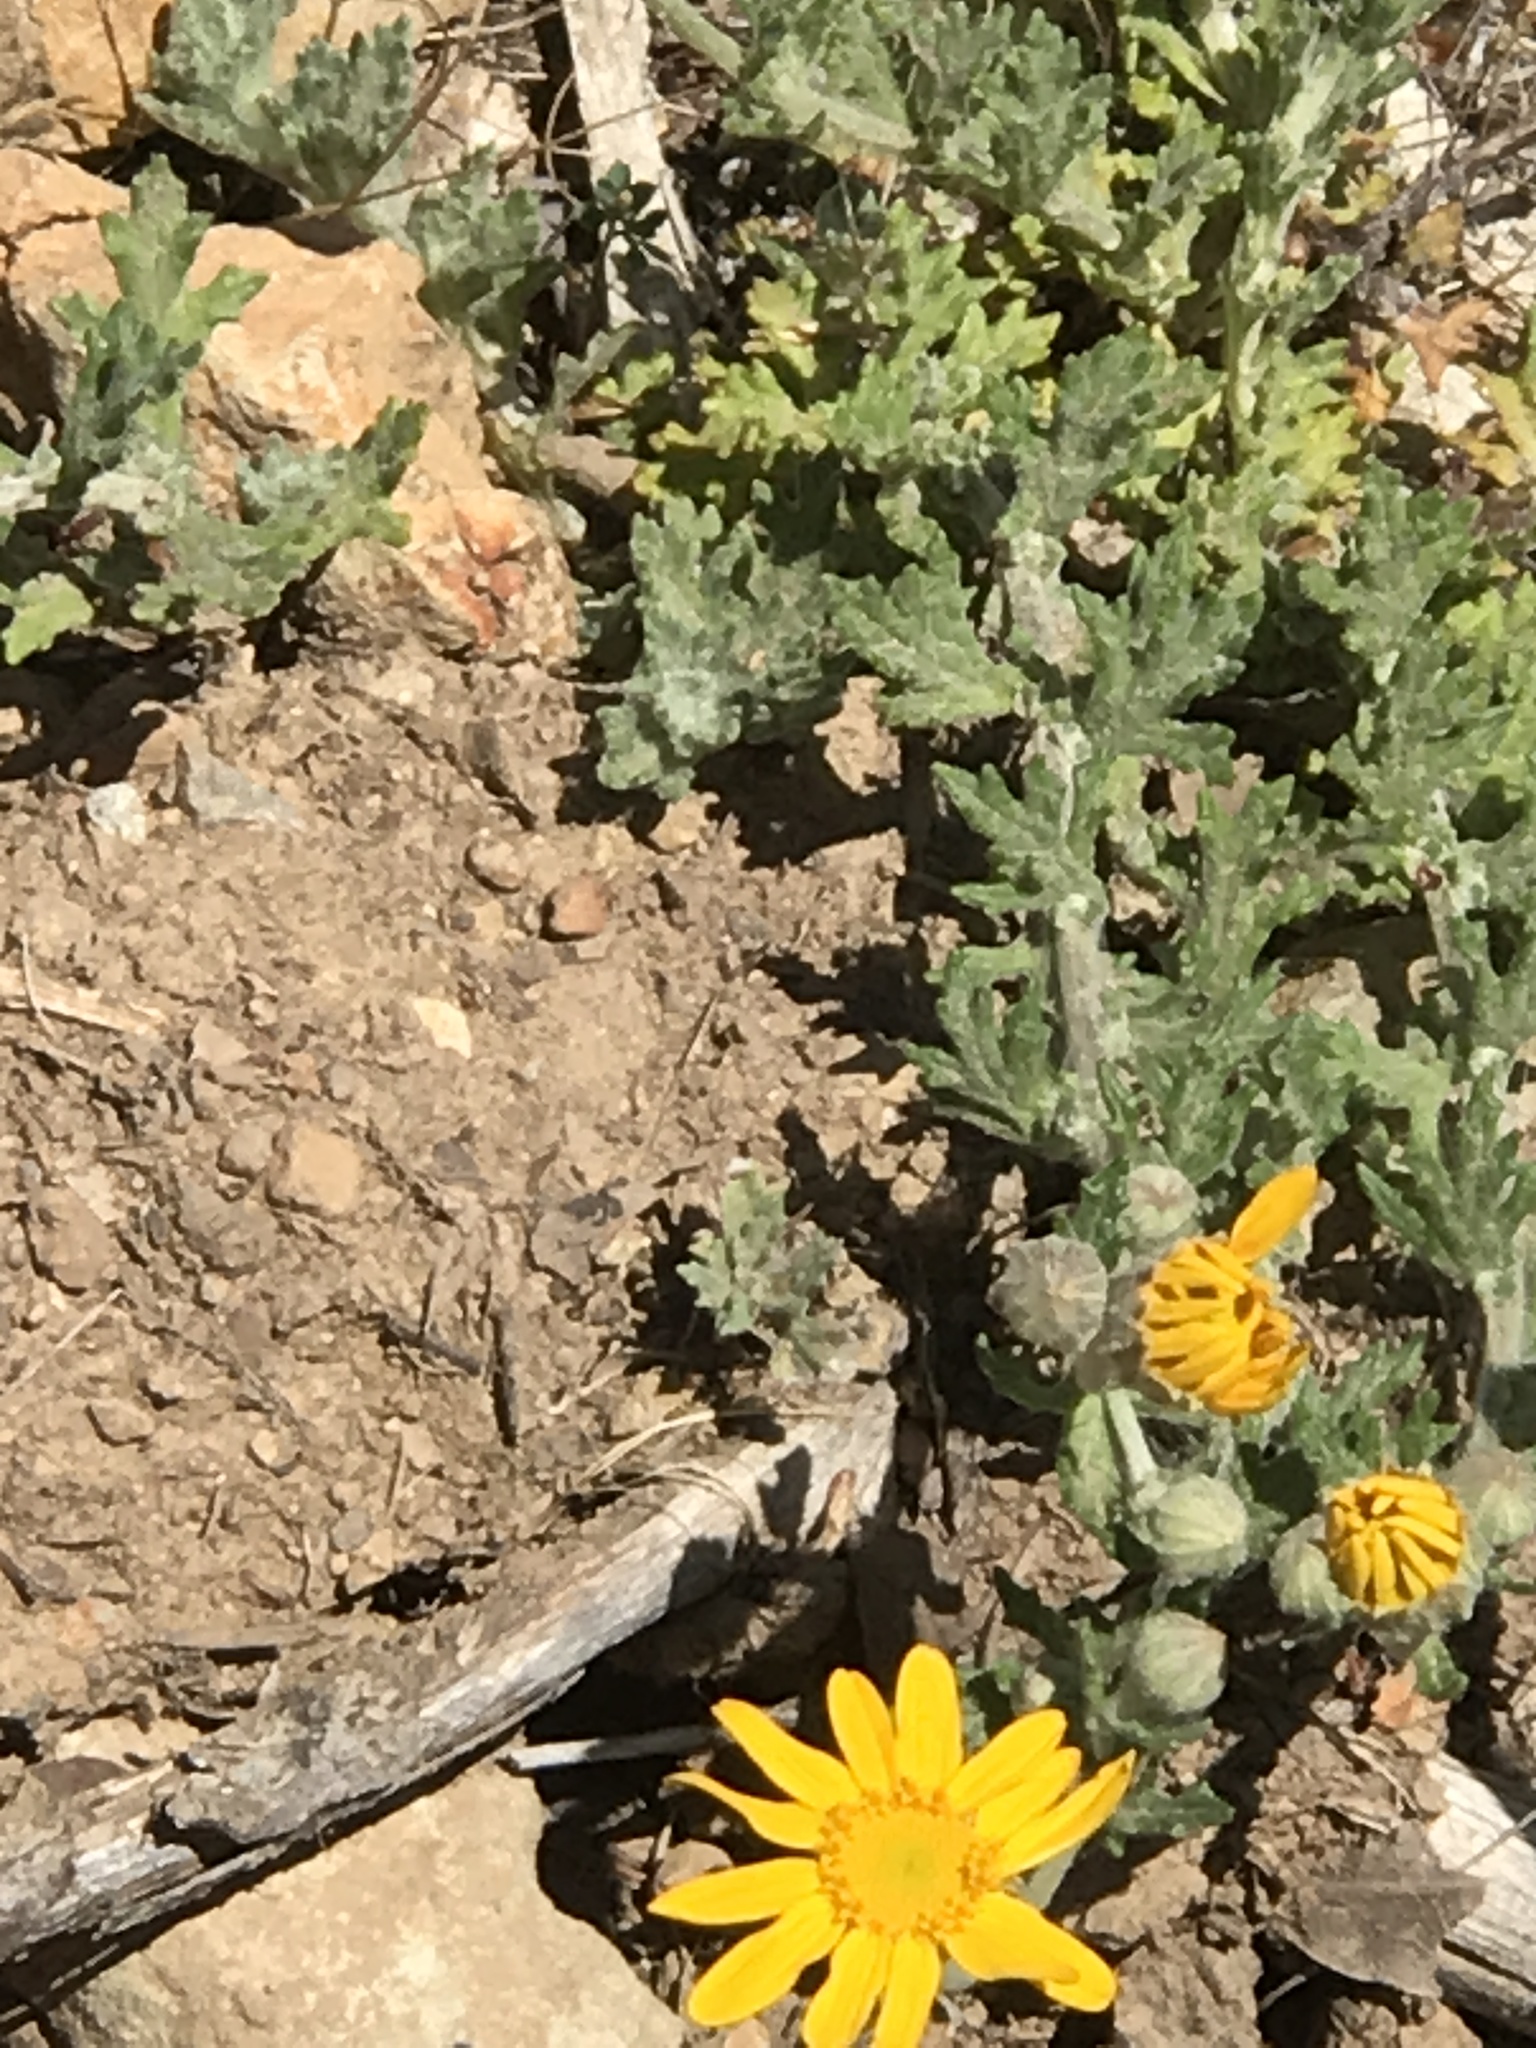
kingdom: Plantae
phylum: Tracheophyta
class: Magnoliopsida
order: Asterales
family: Asteraceae
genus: Eriophyllum
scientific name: Eriophyllum lanatum
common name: Common woolly-sunflower
